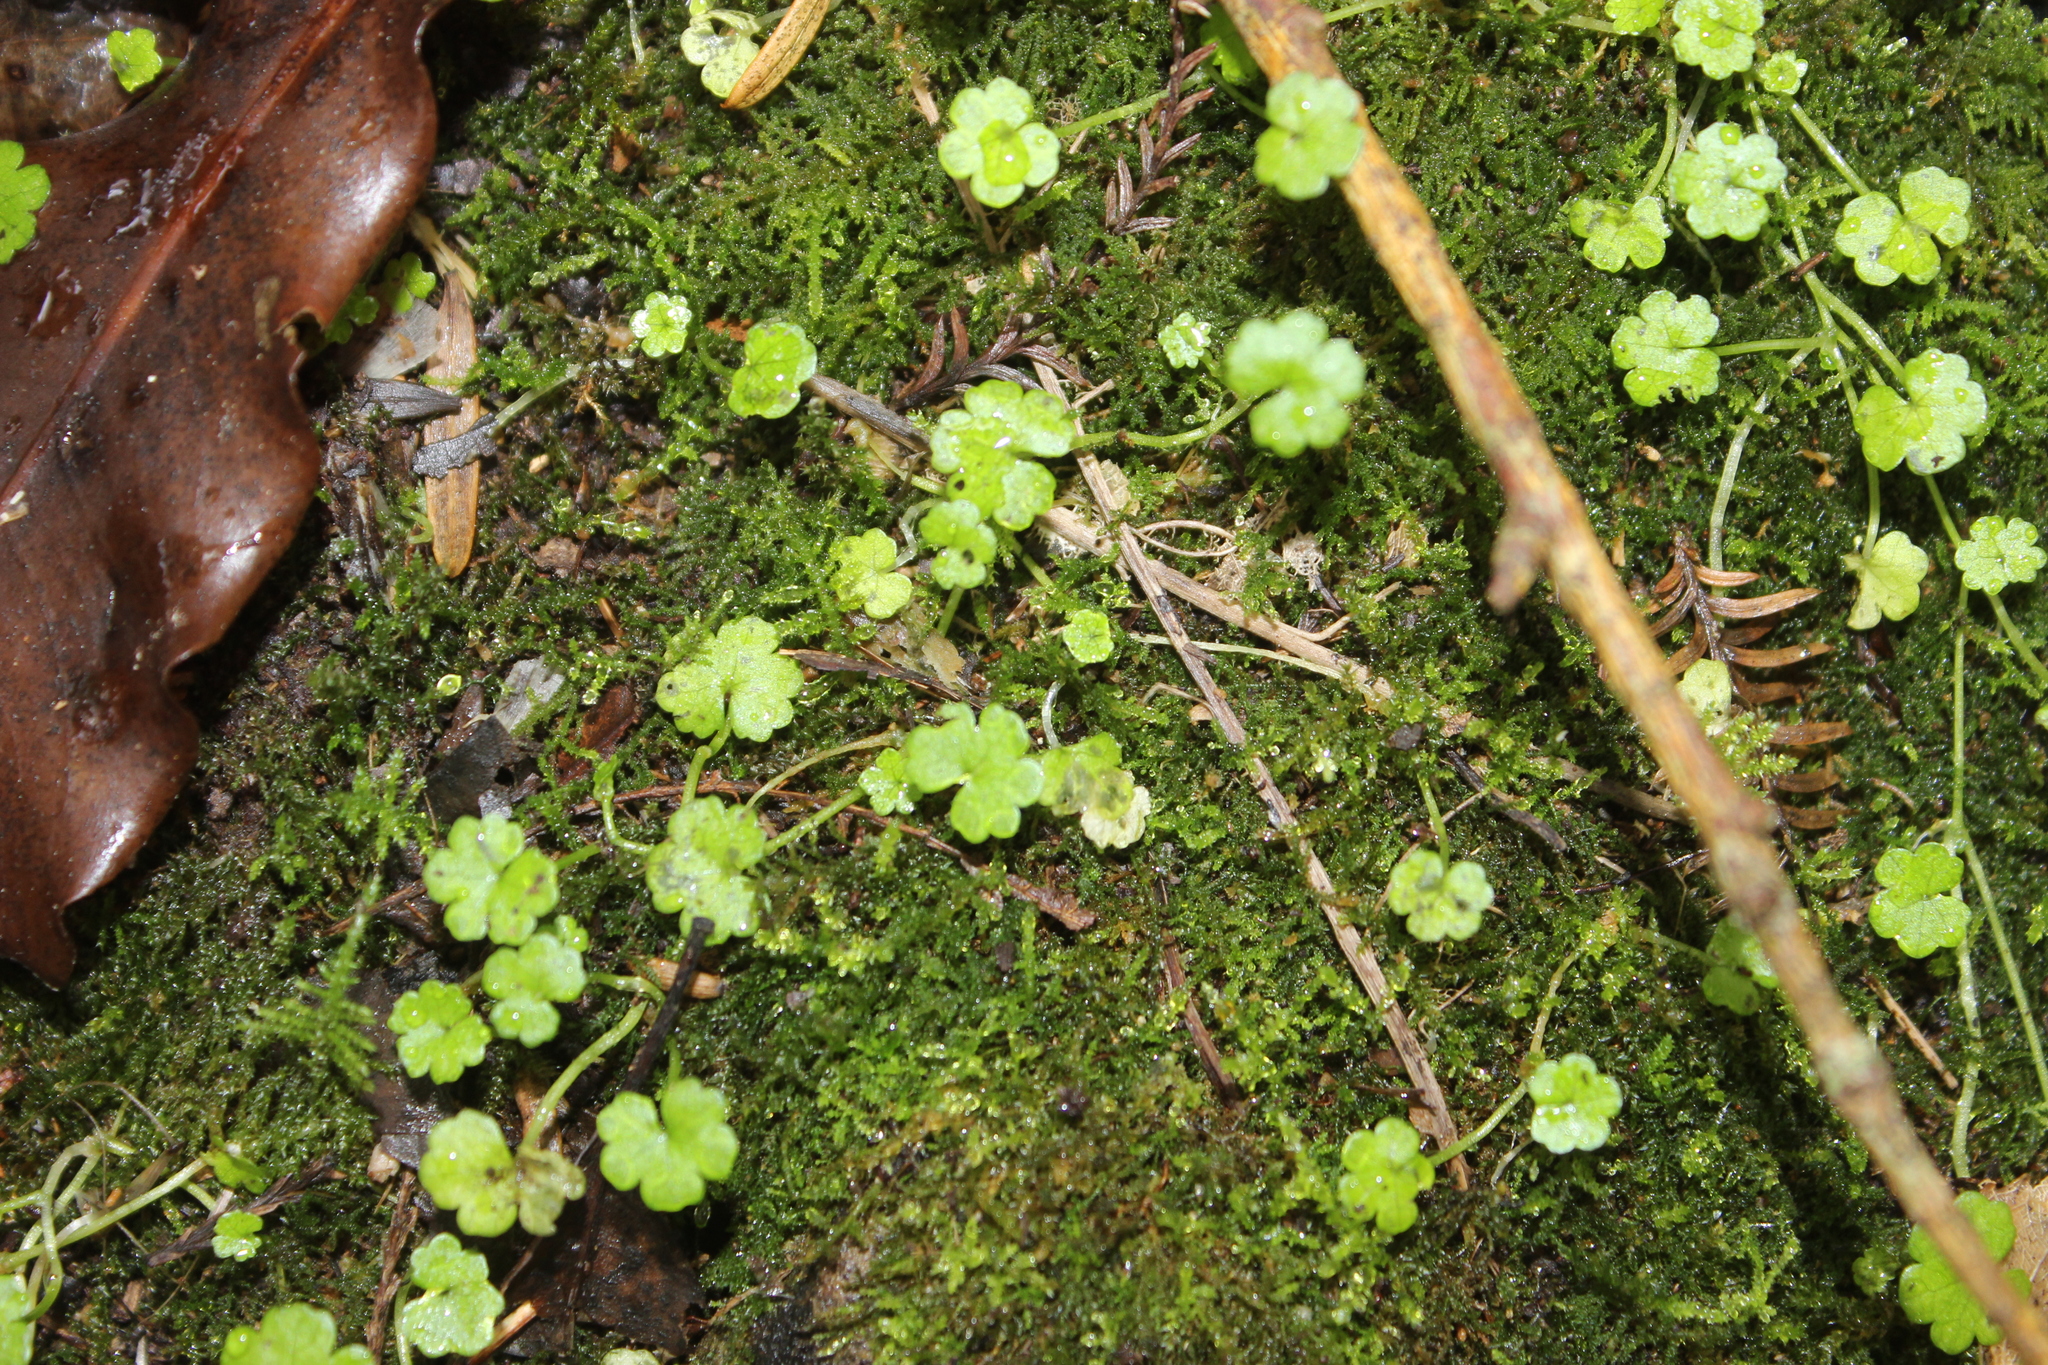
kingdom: Plantae
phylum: Tracheophyta
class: Magnoliopsida
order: Apiales
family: Araliaceae
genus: Hydrocotyle
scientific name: Hydrocotyle heteromeria
